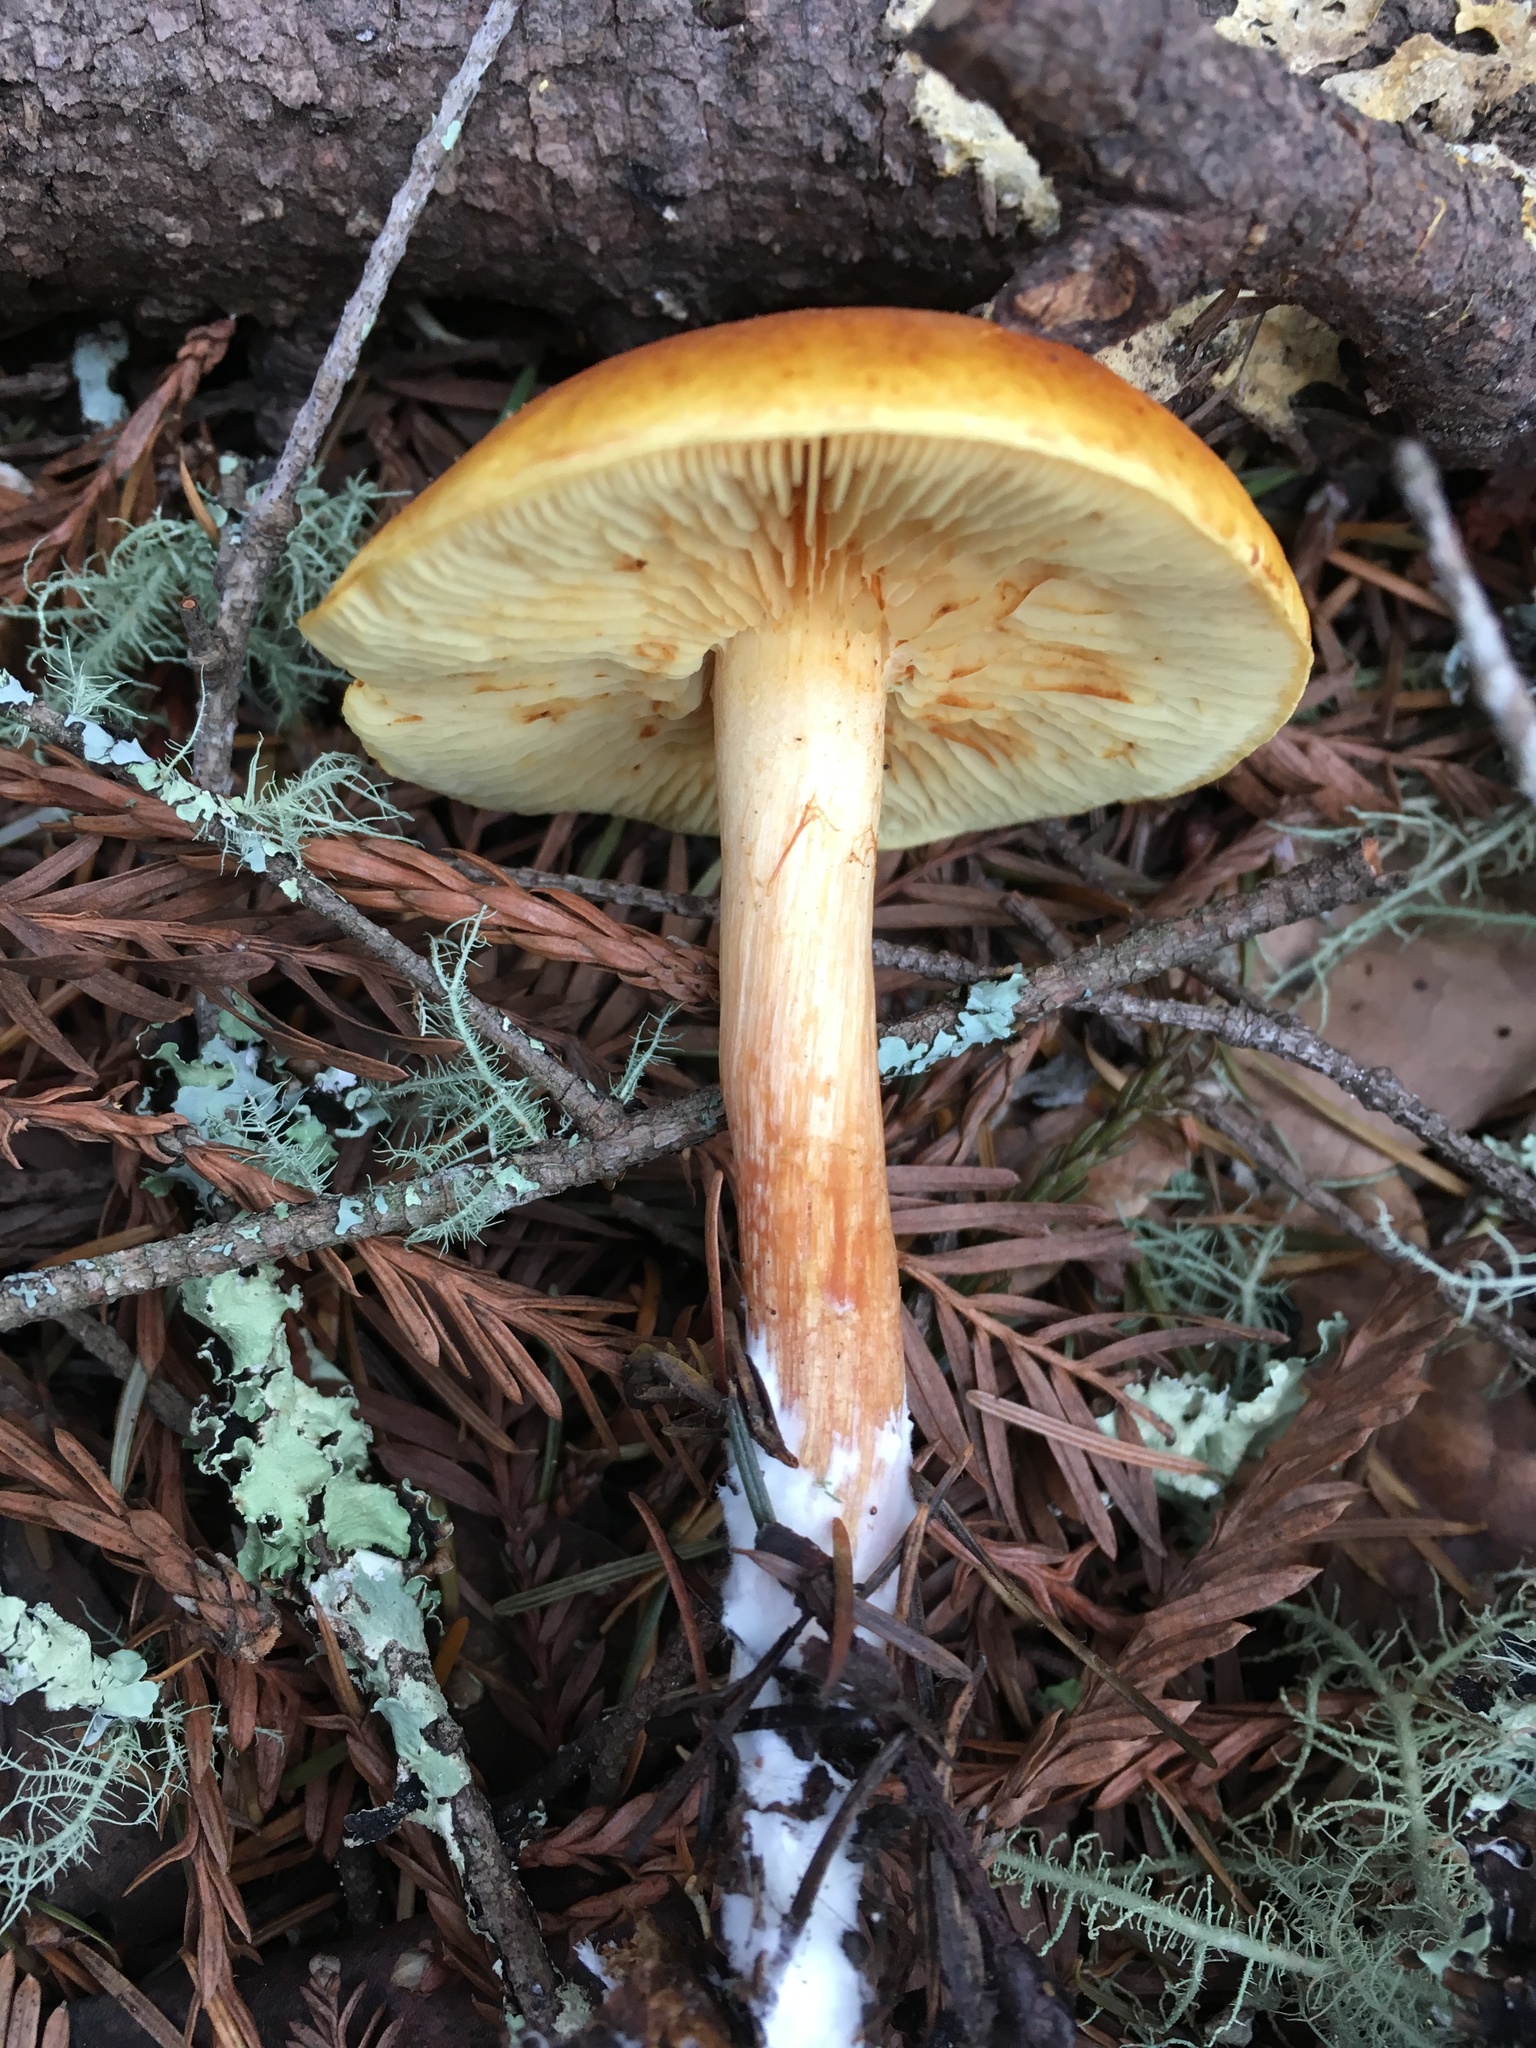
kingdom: Fungi
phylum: Basidiomycota
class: Agaricomycetes
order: Agaricales
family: Hymenogastraceae
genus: Gymnopilus
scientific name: Gymnopilus sapineus
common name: Scaly rustgill
